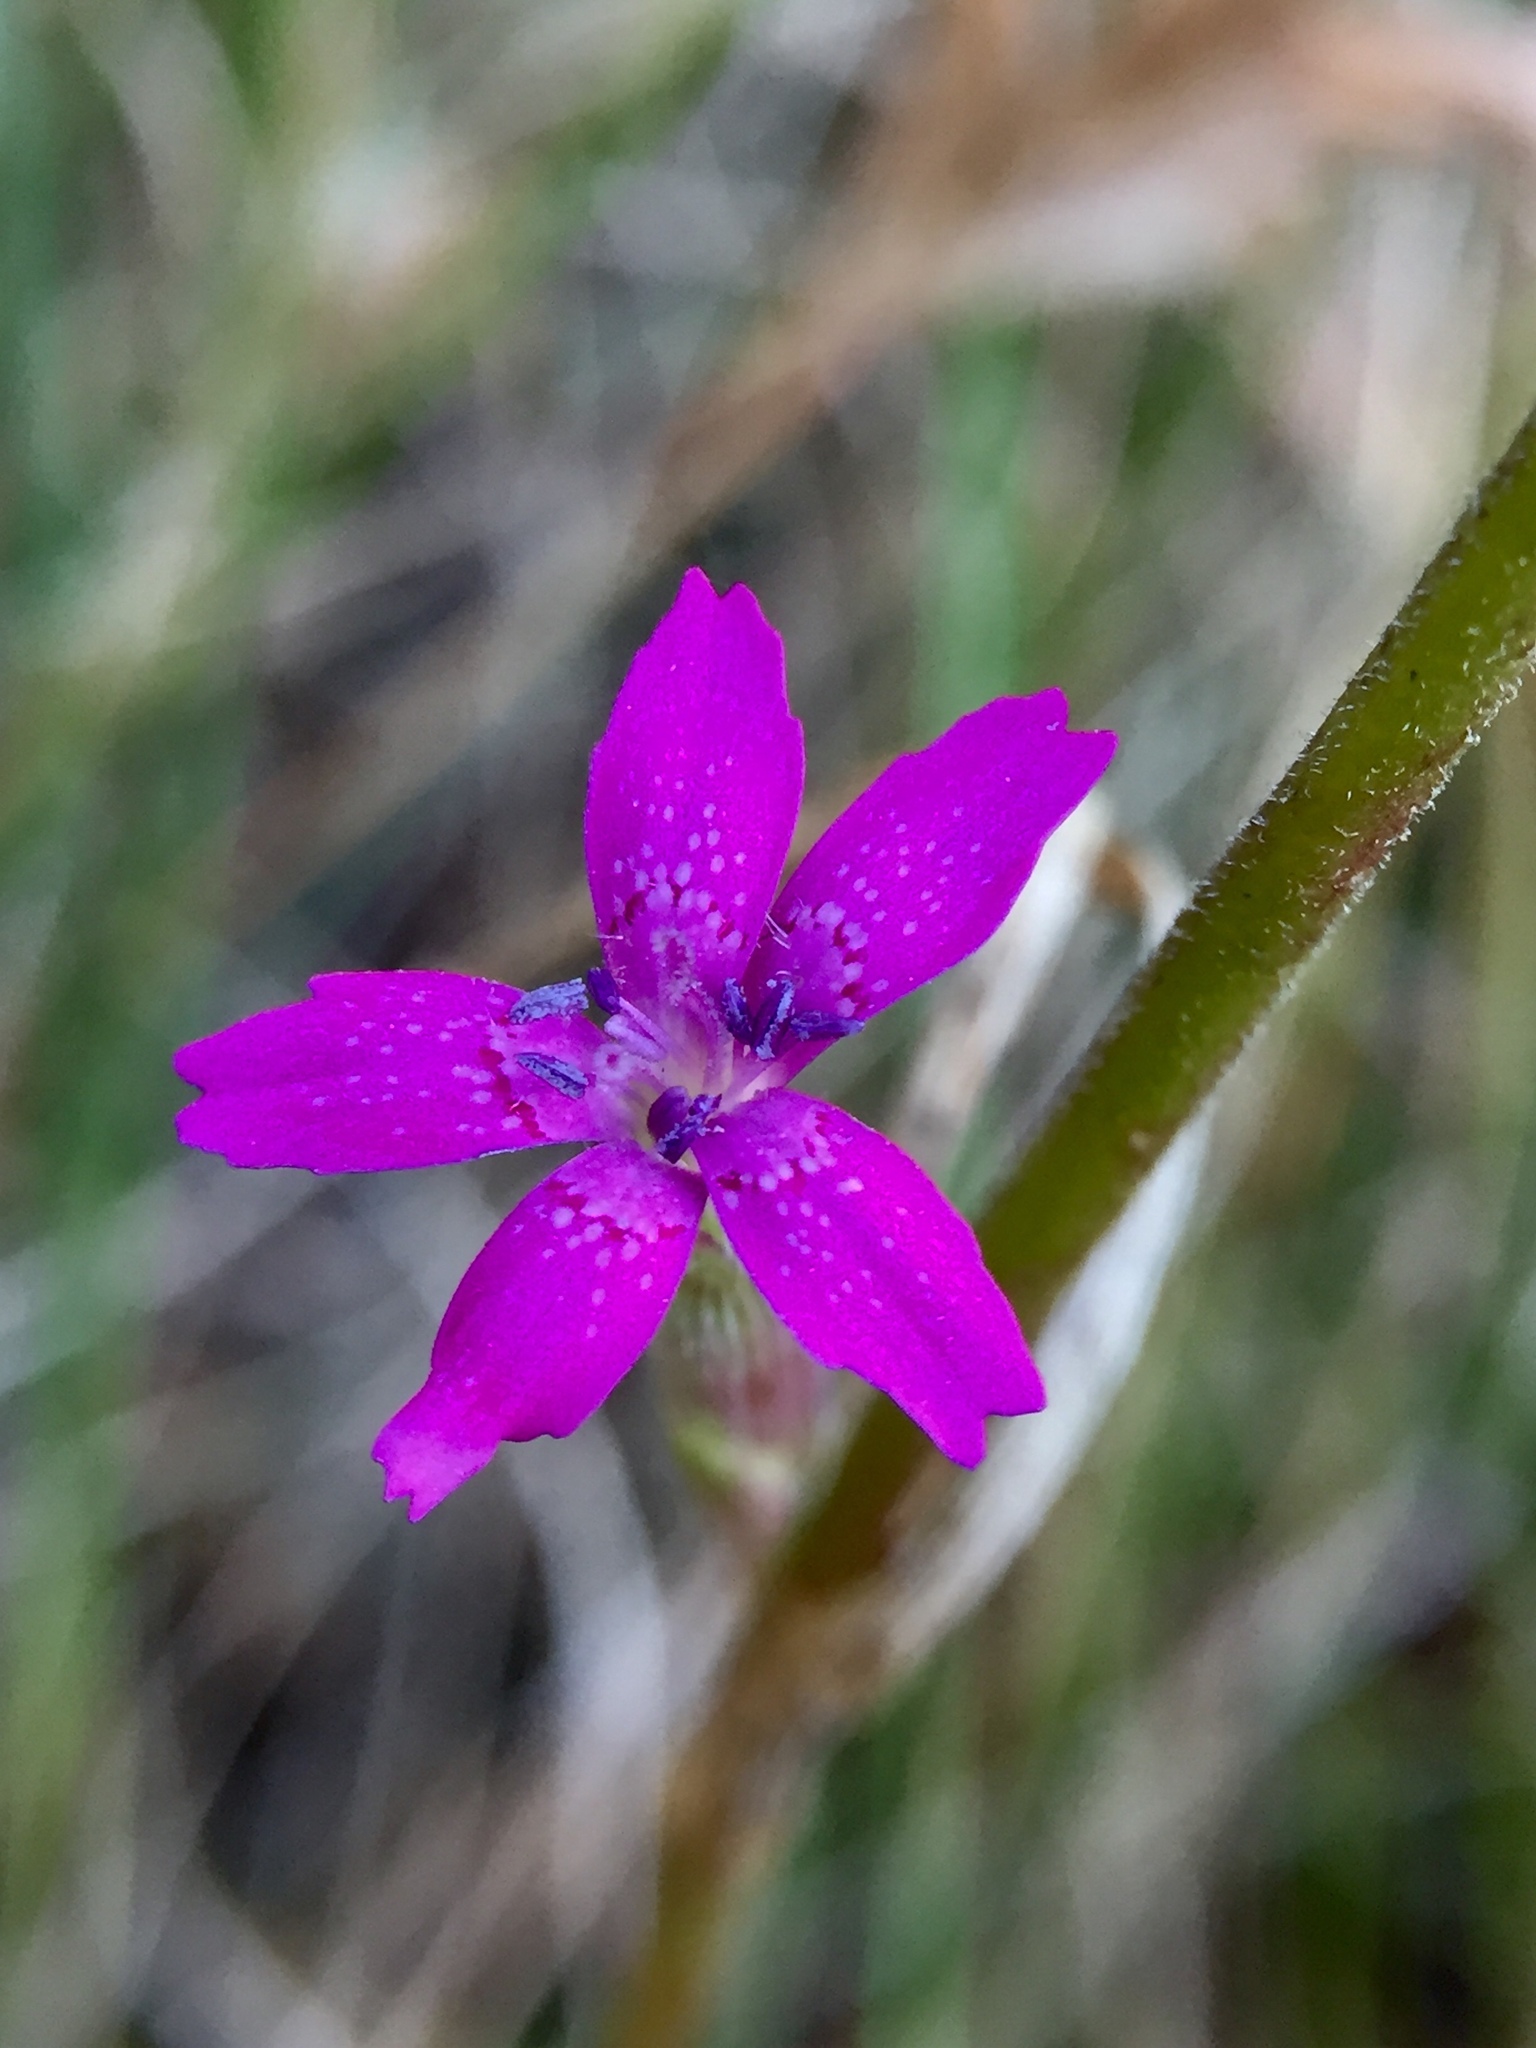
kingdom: Plantae
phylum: Tracheophyta
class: Magnoliopsida
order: Caryophyllales
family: Caryophyllaceae
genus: Dianthus
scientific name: Dianthus armeria
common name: Deptford pink
